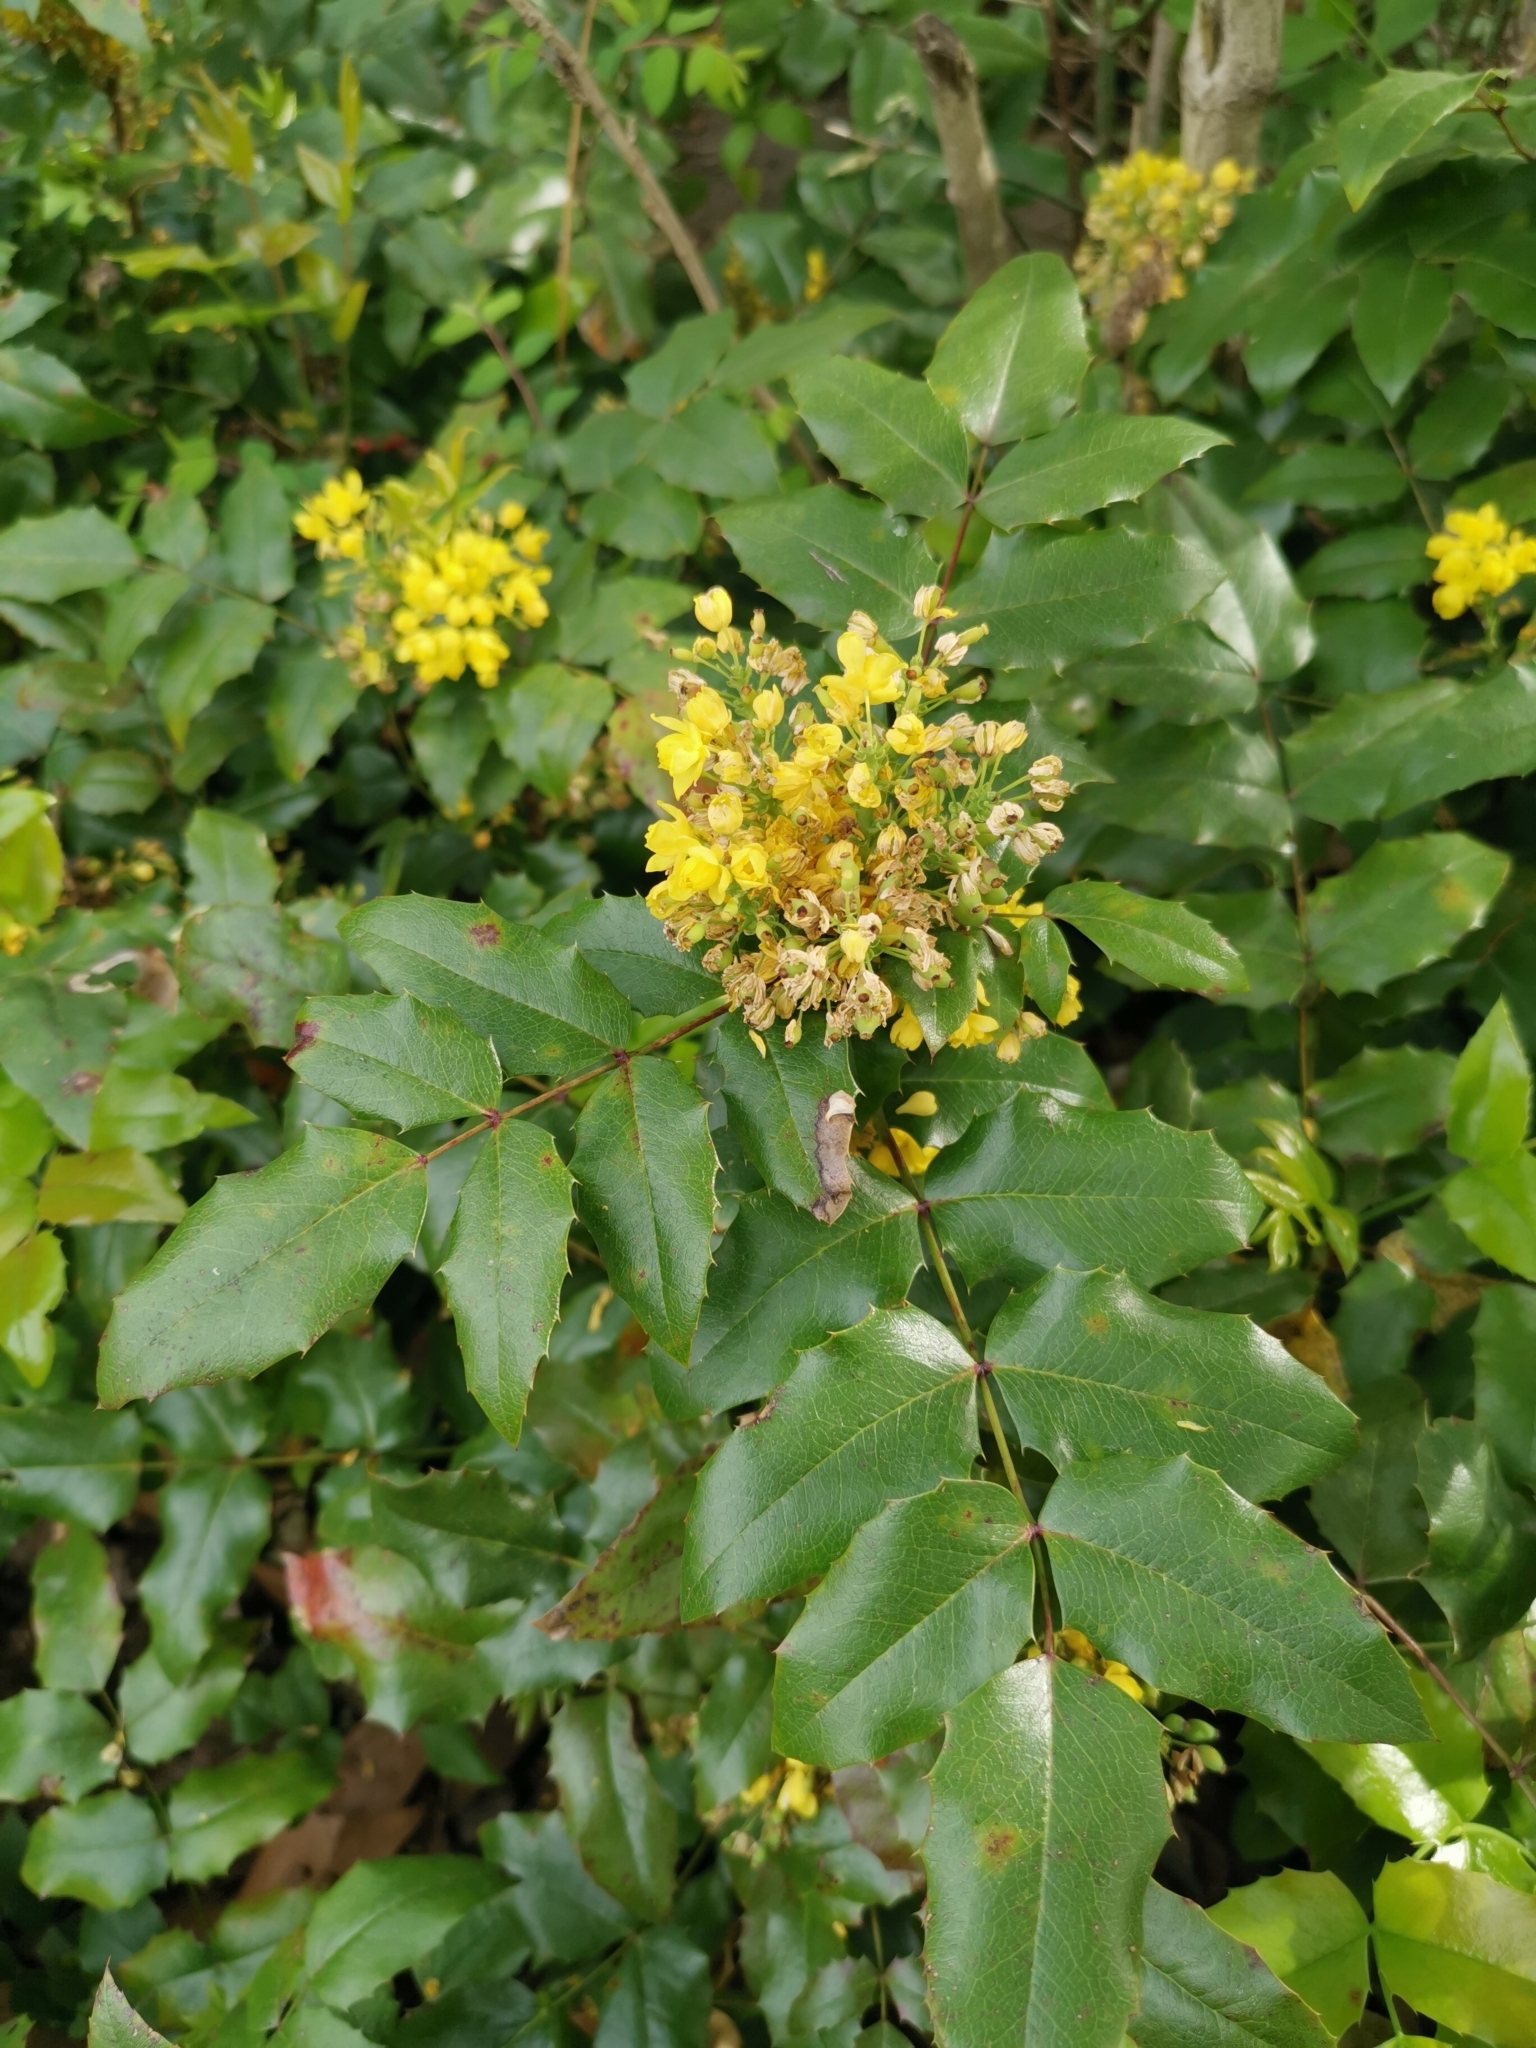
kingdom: Plantae
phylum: Tracheophyta
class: Magnoliopsida
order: Ranunculales
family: Berberidaceae
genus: Mahonia
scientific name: Mahonia aquifolium
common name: Oregon-grape
